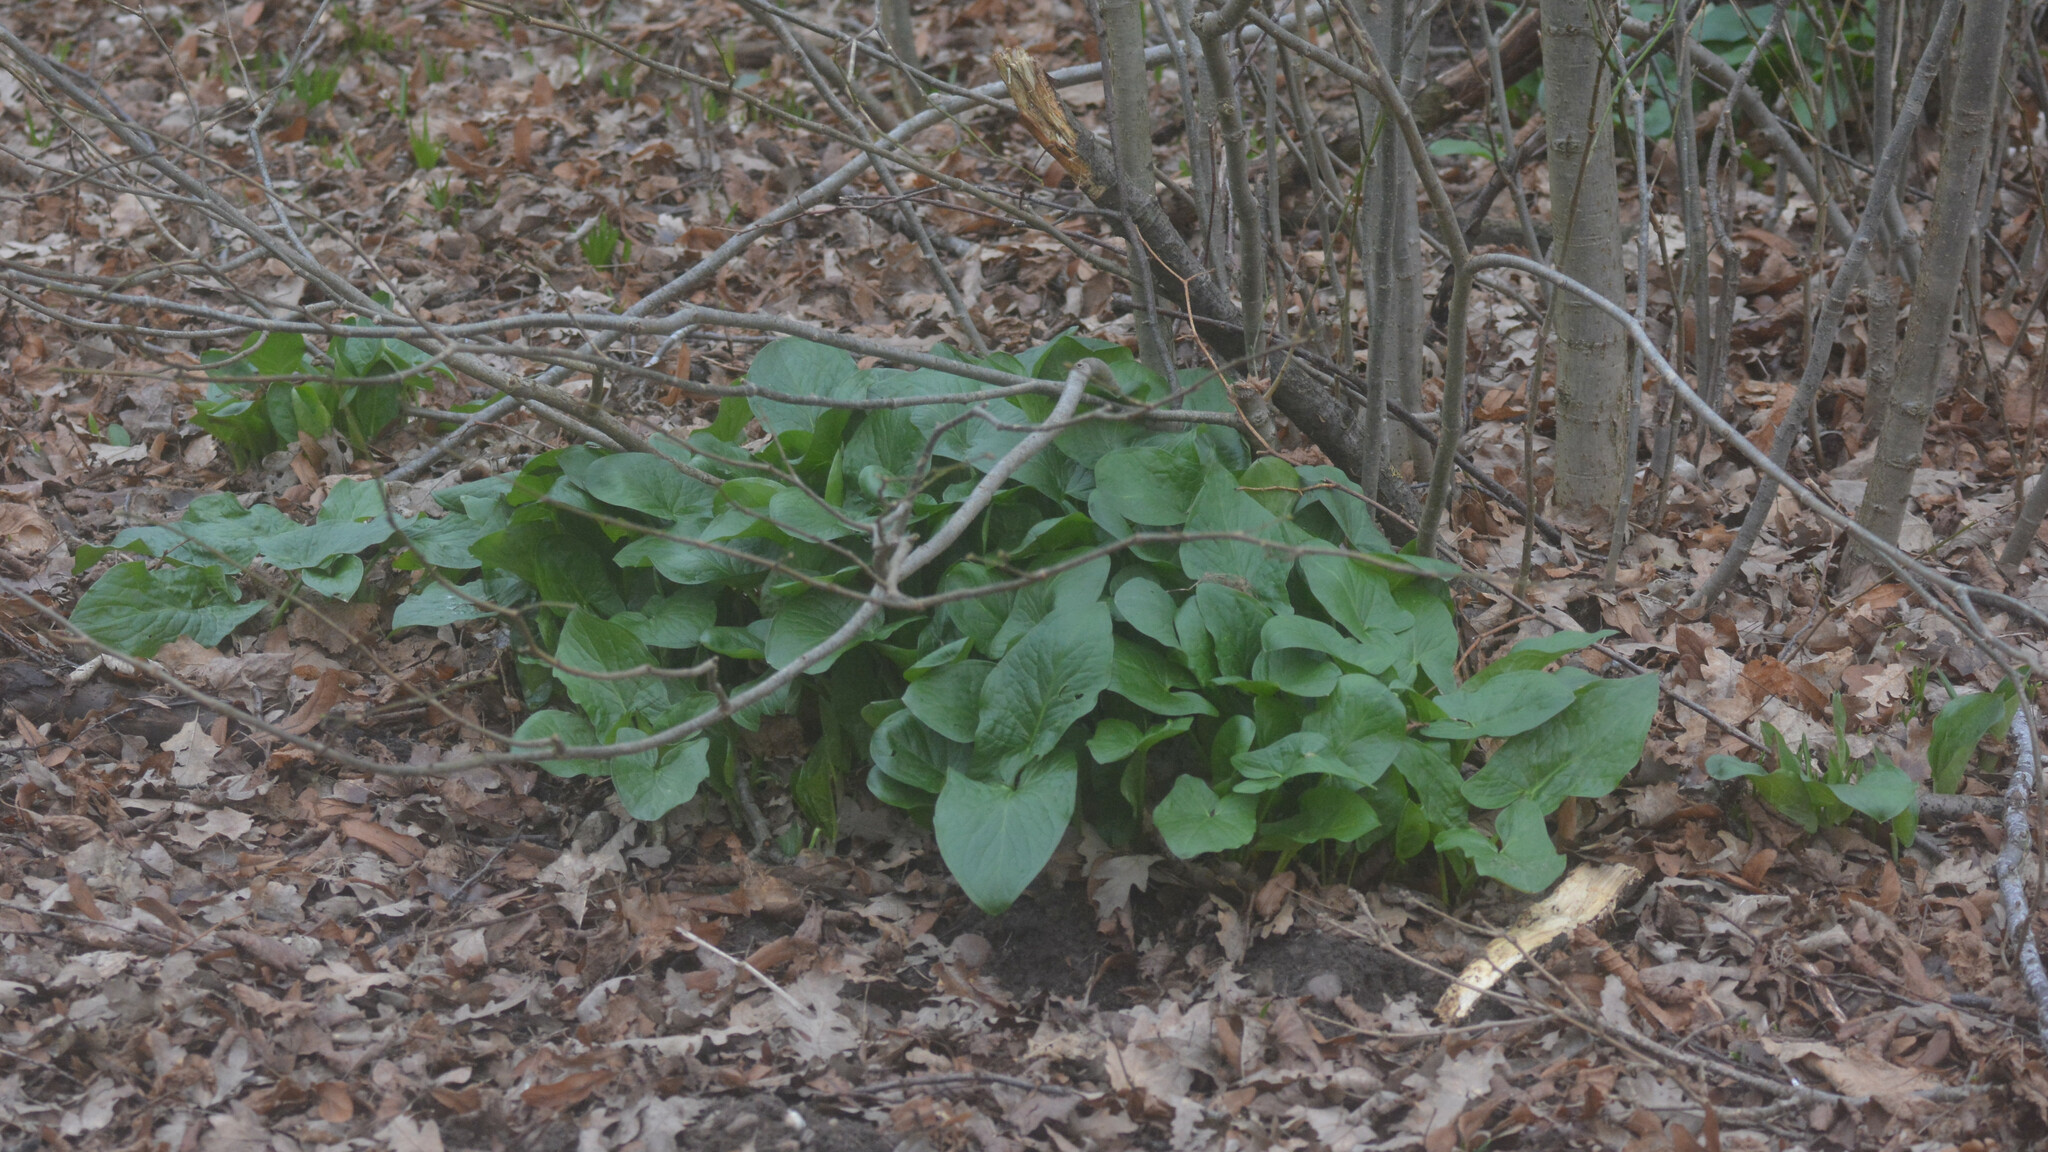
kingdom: Plantae
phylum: Tracheophyta
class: Liliopsida
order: Alismatales
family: Araceae
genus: Arum
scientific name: Arum maculatum
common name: Lords-and-ladies
